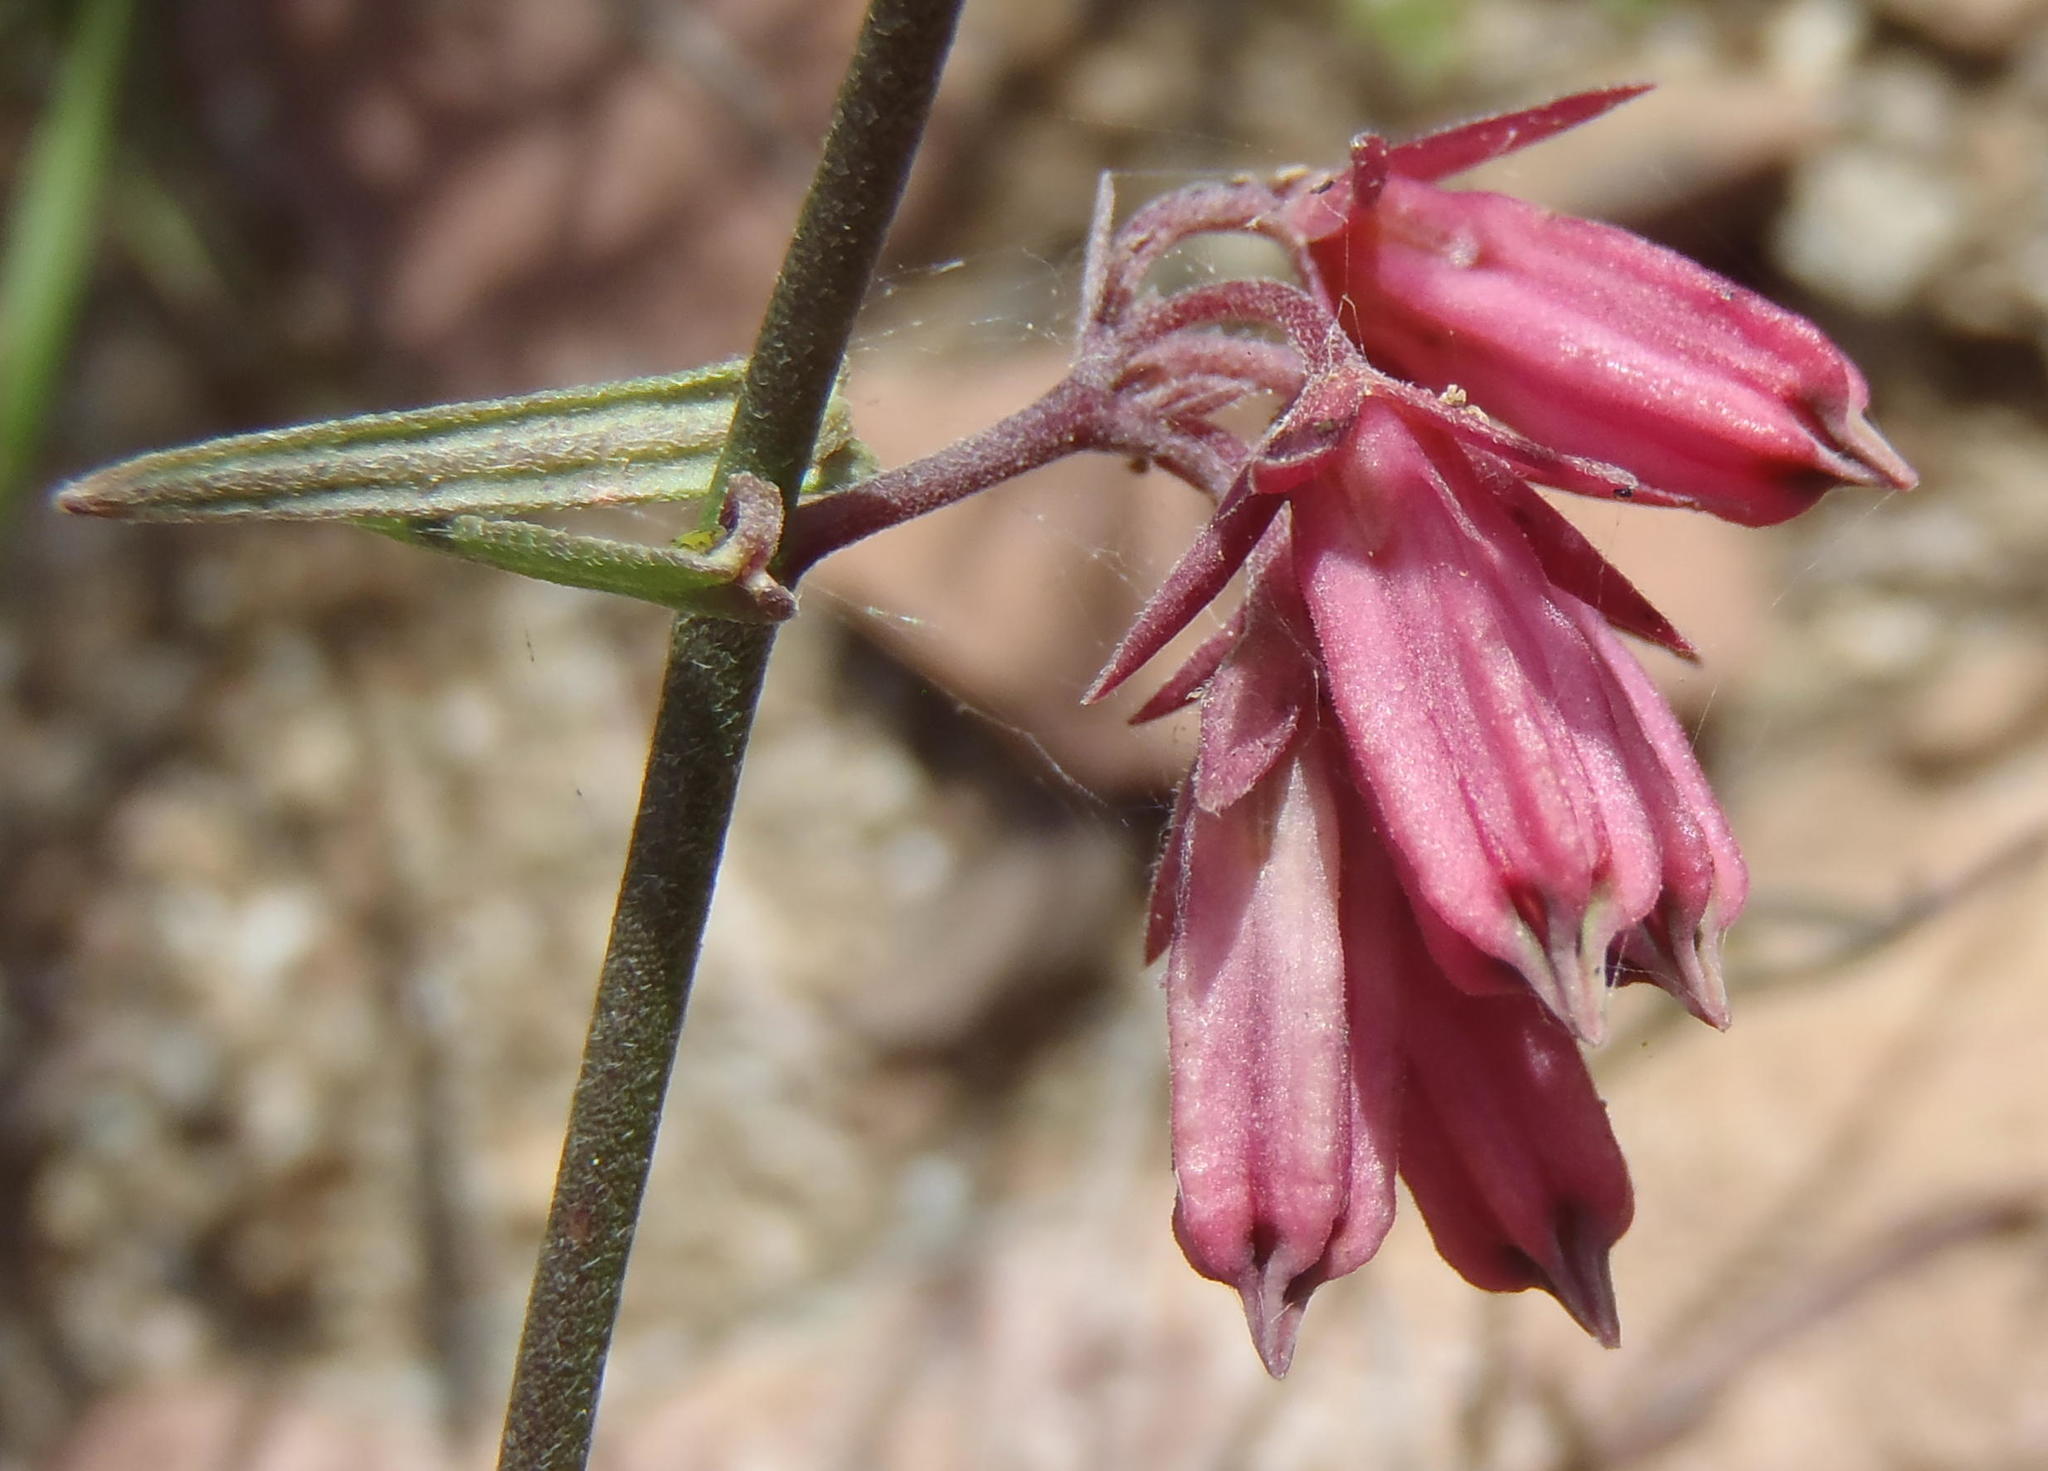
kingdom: Plantae
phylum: Tracheophyta
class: Magnoliopsida
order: Gentianales
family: Apocynaceae
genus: Microloma
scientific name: Microloma sagittatum
